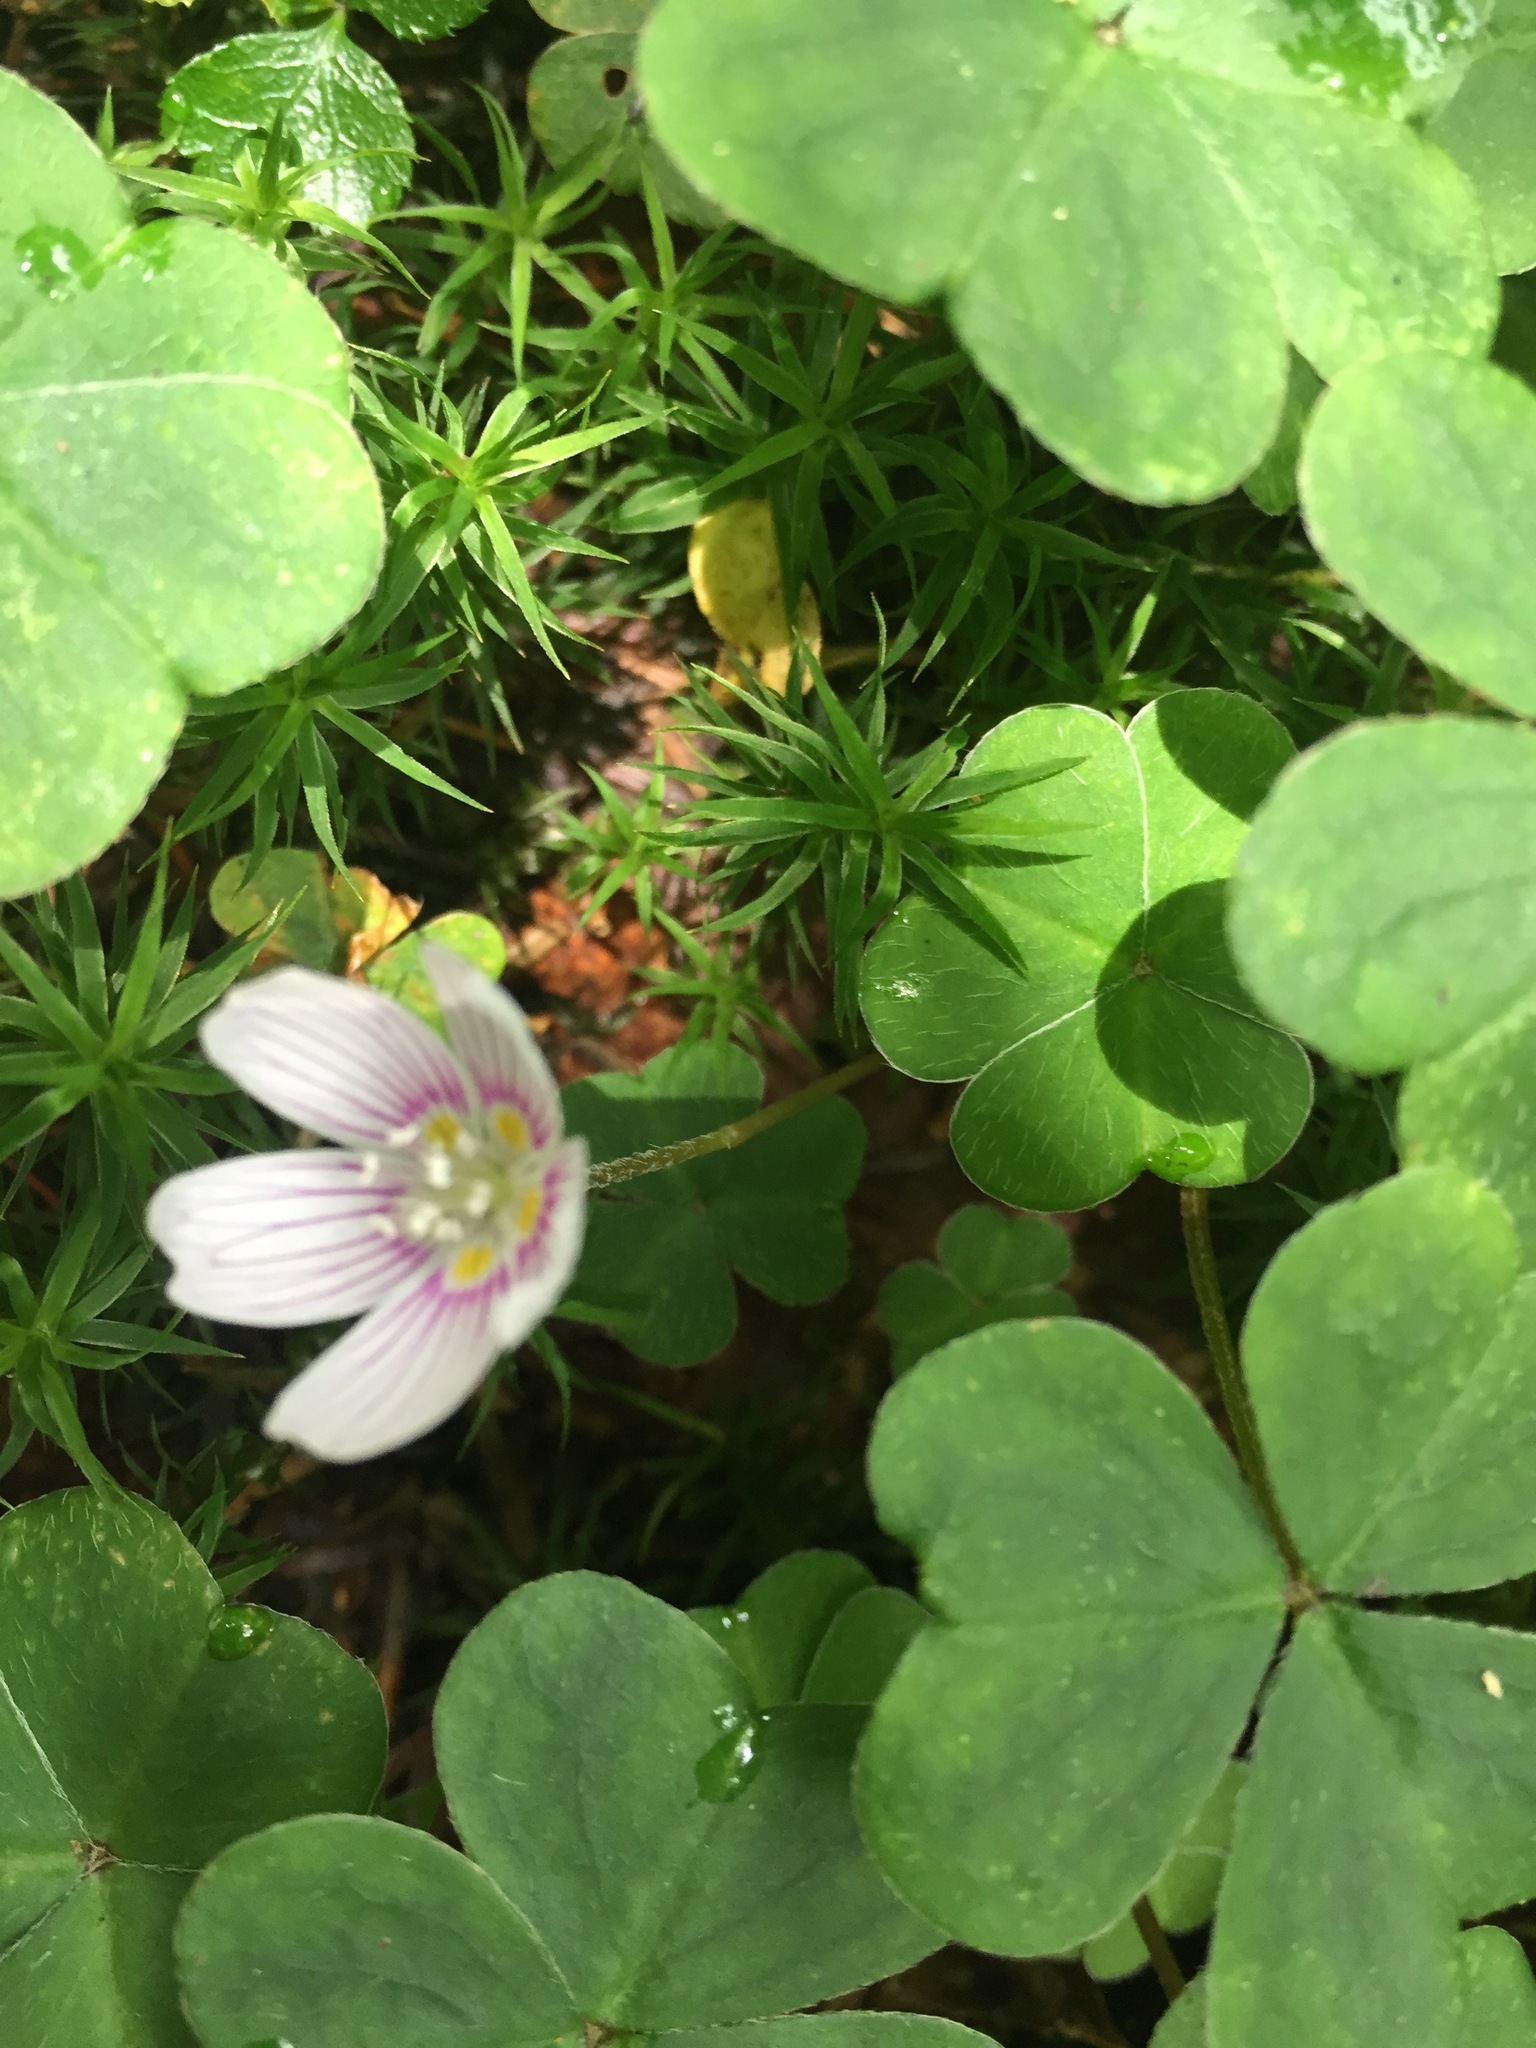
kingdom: Plantae
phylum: Tracheophyta
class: Magnoliopsida
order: Oxalidales
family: Oxalidaceae
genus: Oxalis
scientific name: Oxalis montana
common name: American wood-sorrel
